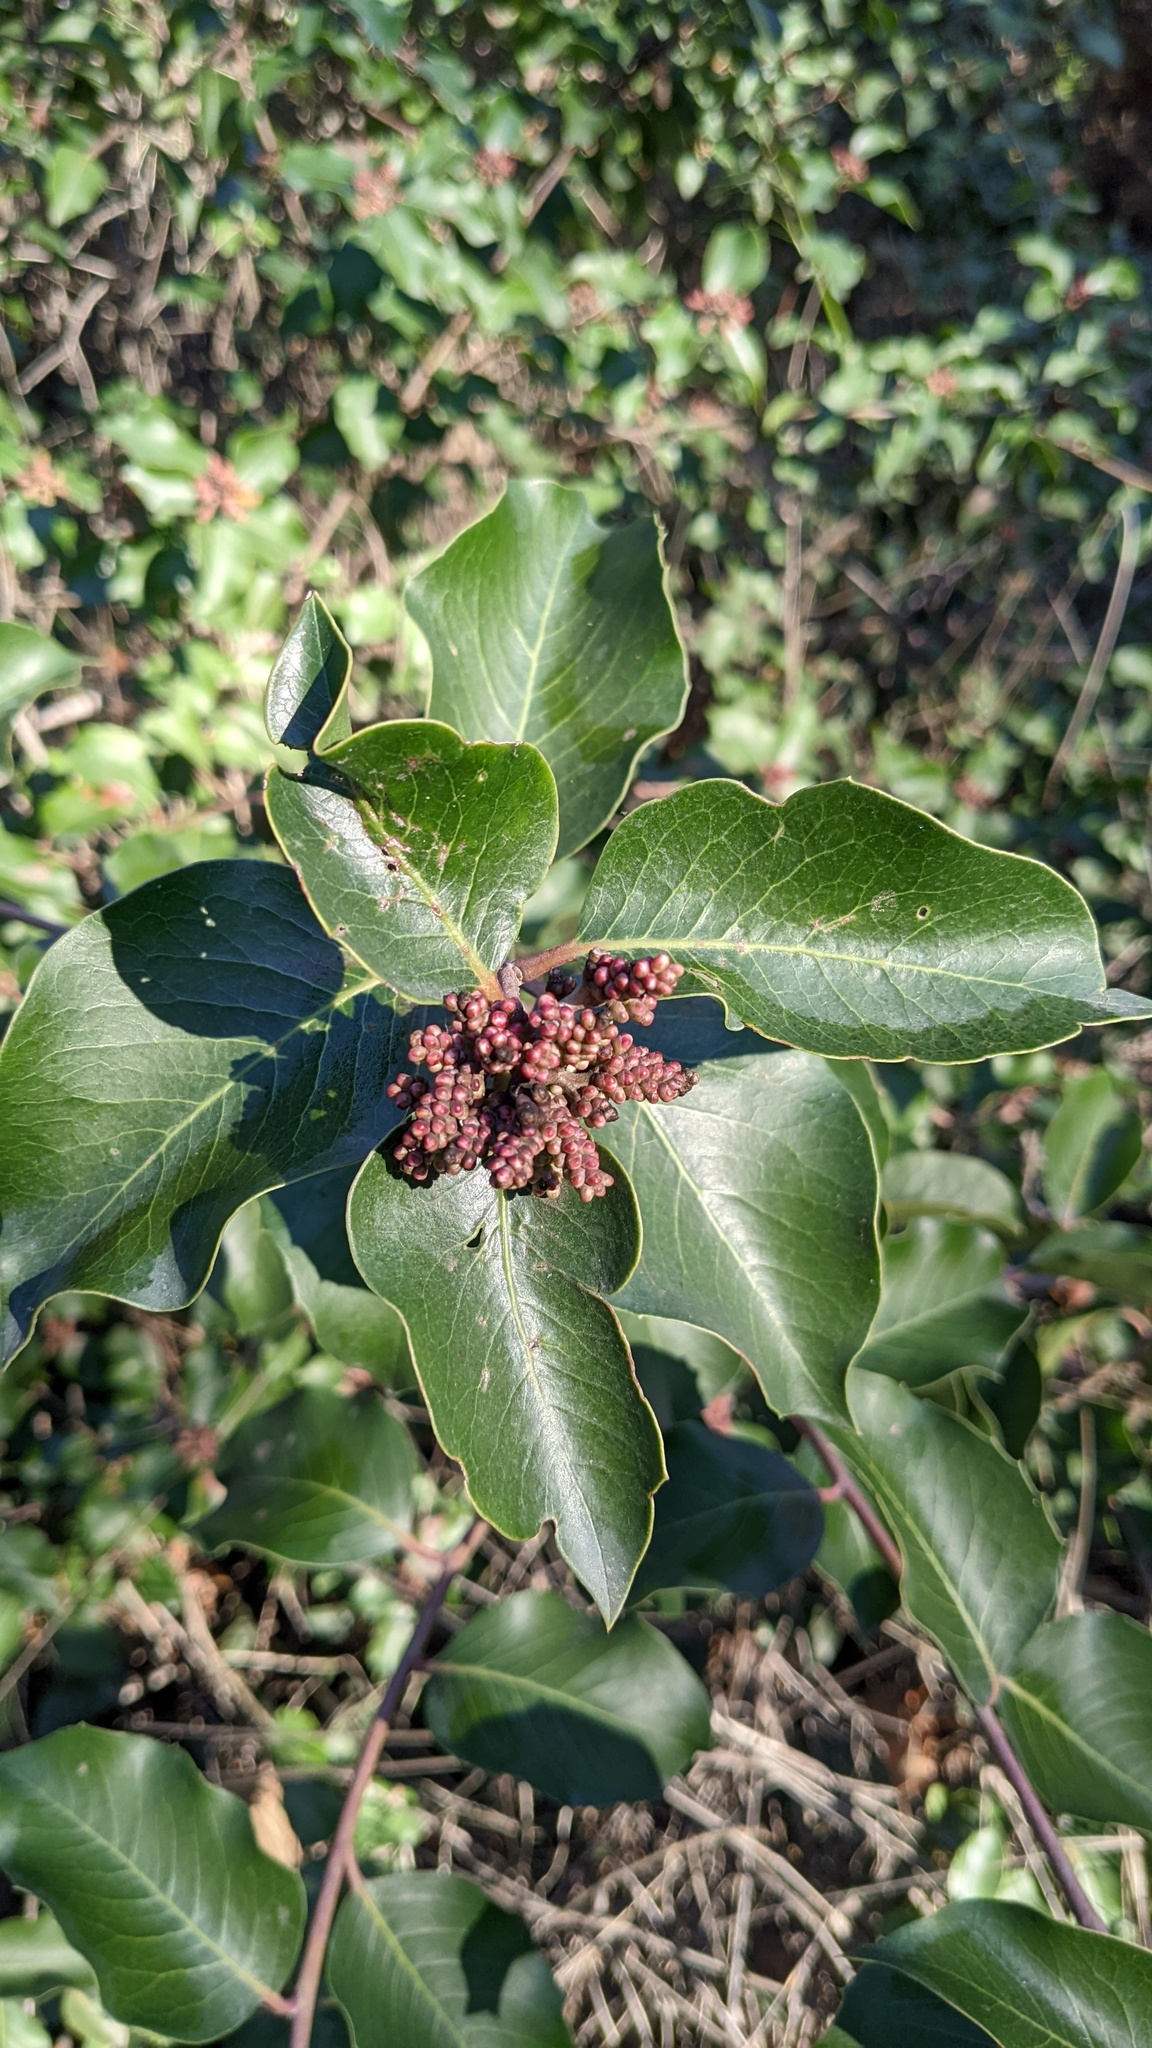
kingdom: Plantae
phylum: Tracheophyta
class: Magnoliopsida
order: Sapindales
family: Anacardiaceae
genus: Rhus
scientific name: Rhus ovata
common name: Sugar sumac
